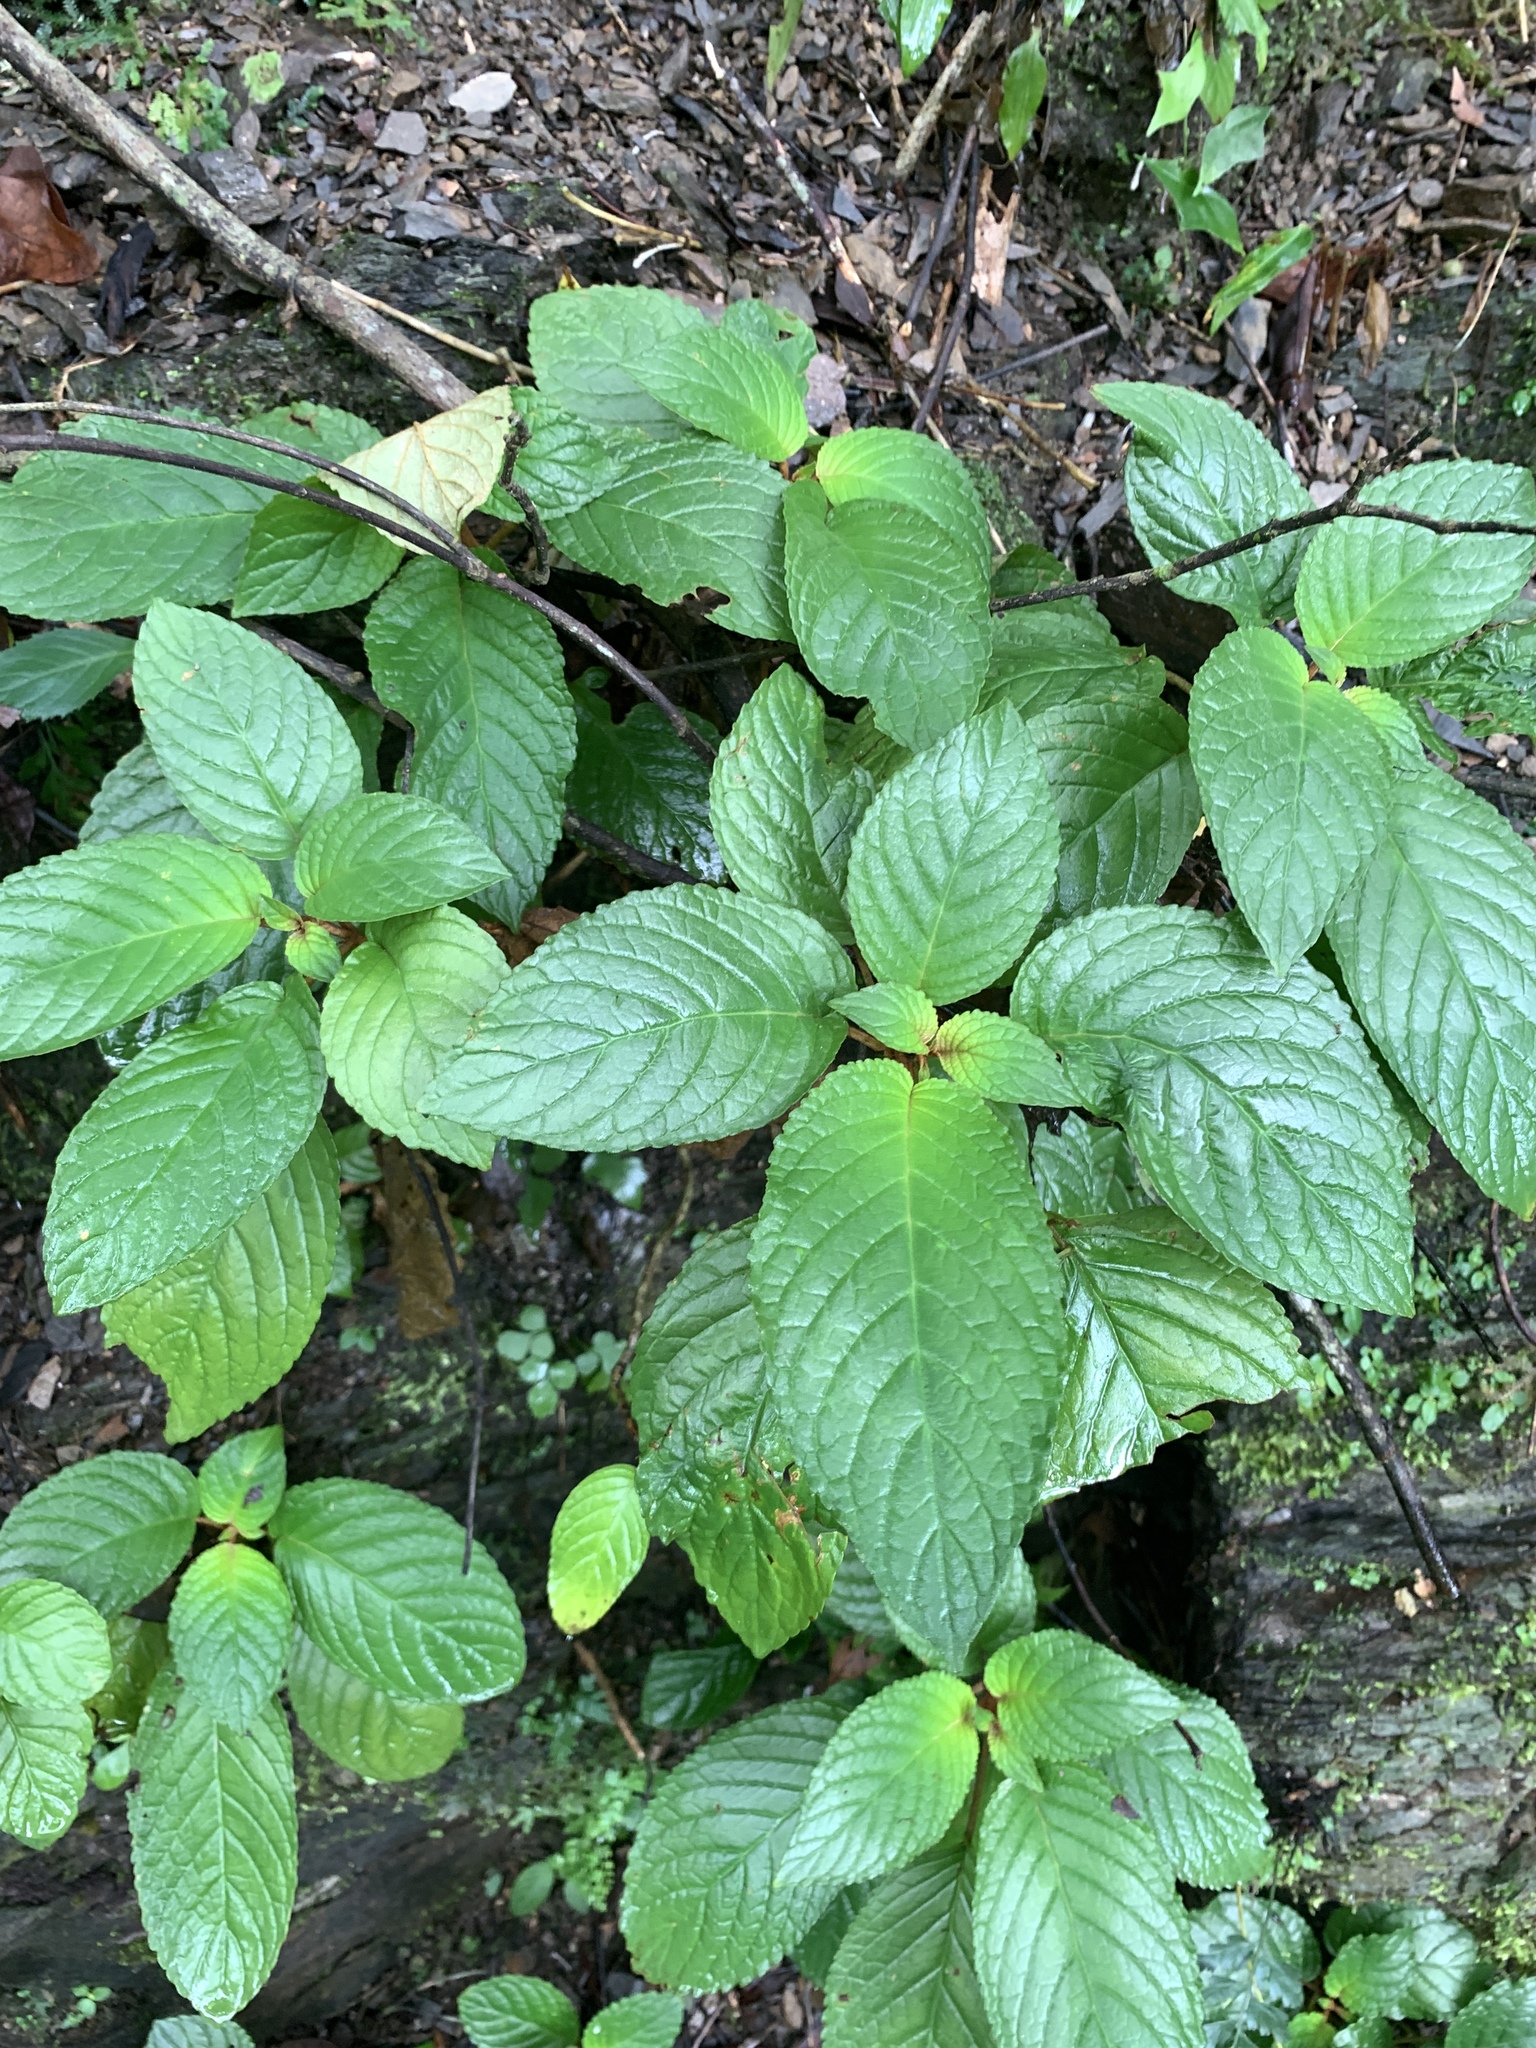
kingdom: Plantae
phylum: Tracheophyta
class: Magnoliopsida
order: Lamiales
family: Gesneriaceae
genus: Rhynchotechum
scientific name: Rhynchotechum discolor
